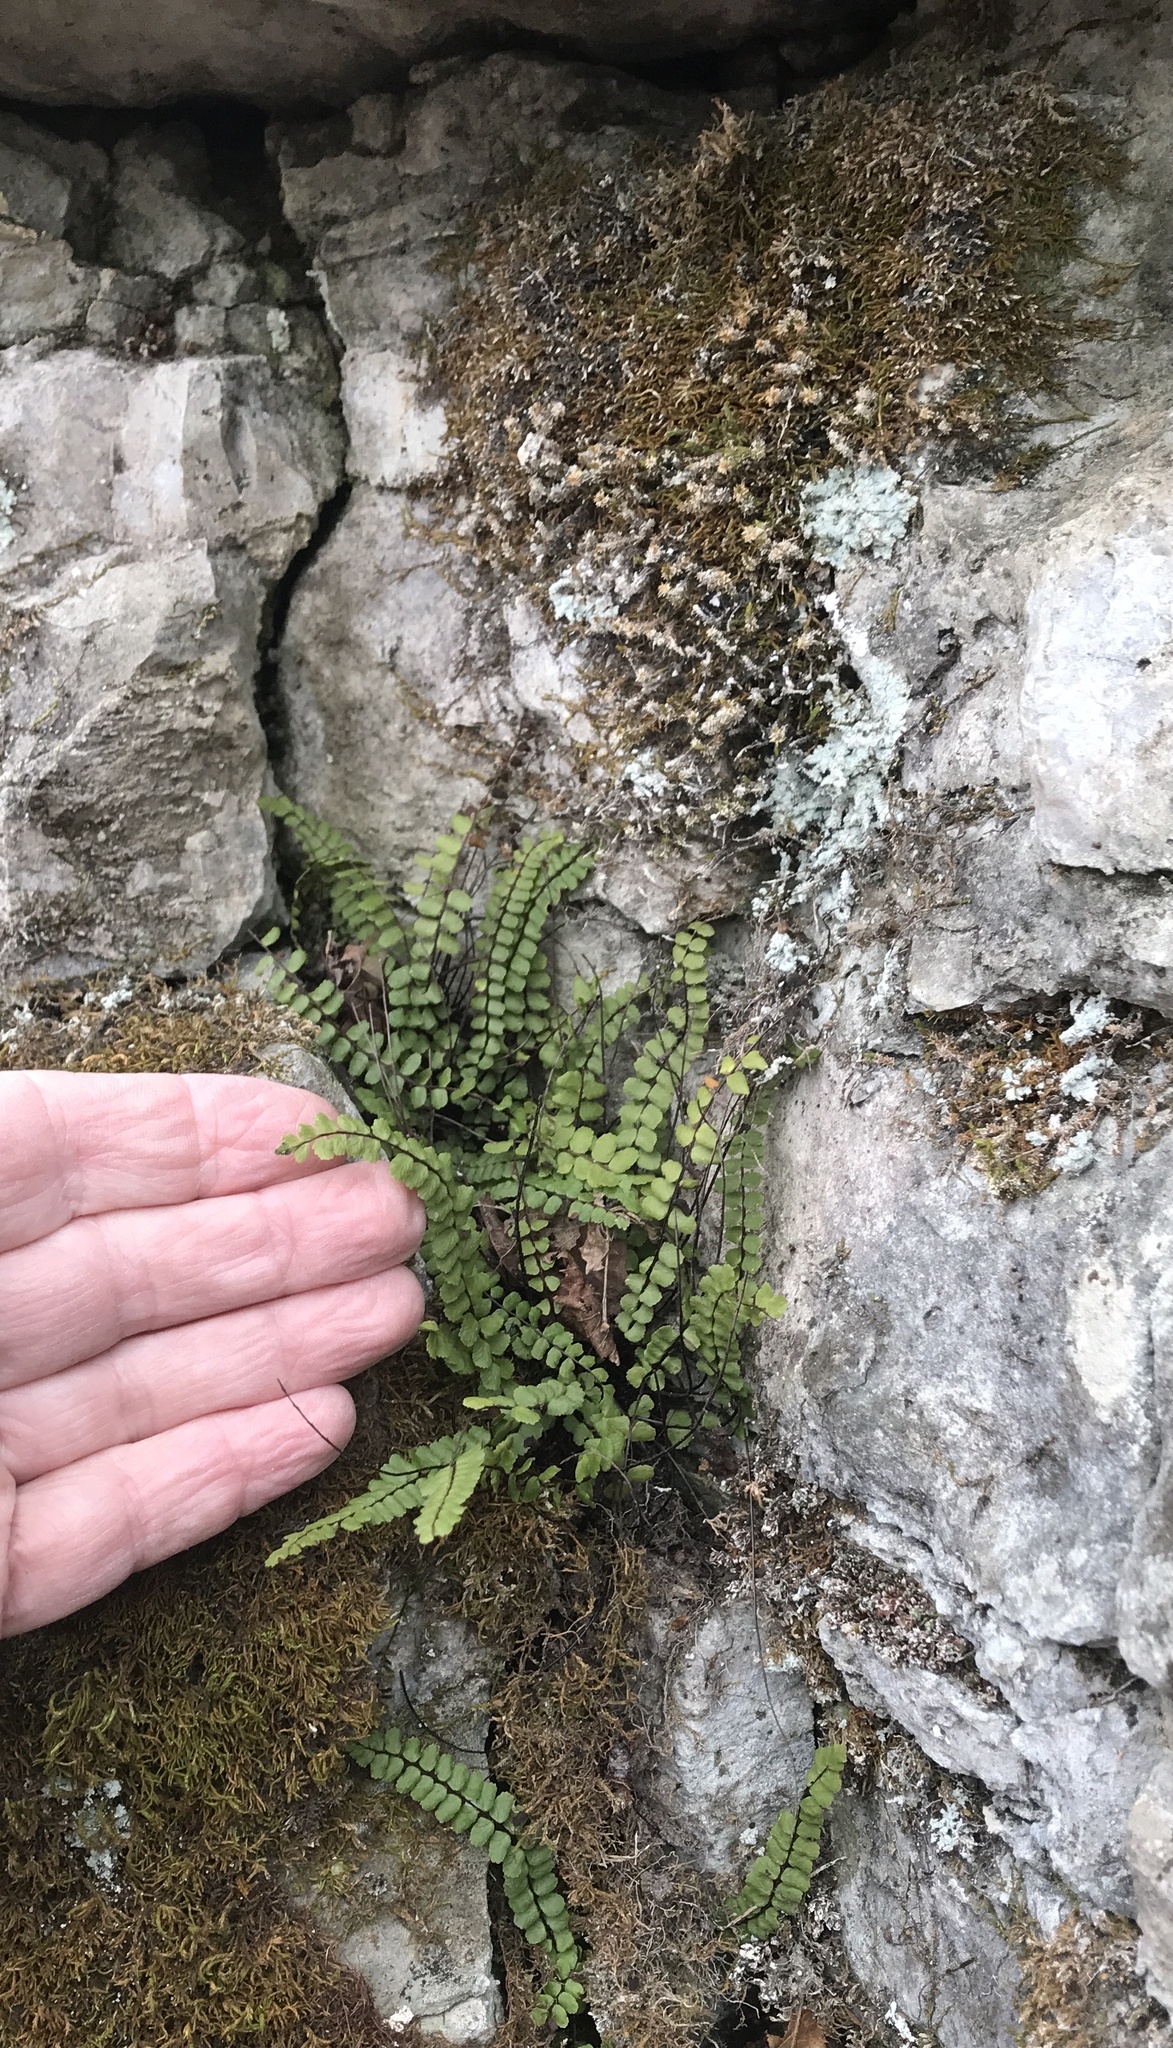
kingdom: Plantae
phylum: Tracheophyta
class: Polypodiopsida
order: Polypodiales
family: Aspleniaceae
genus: Asplenium
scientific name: Asplenium quadrivalens
